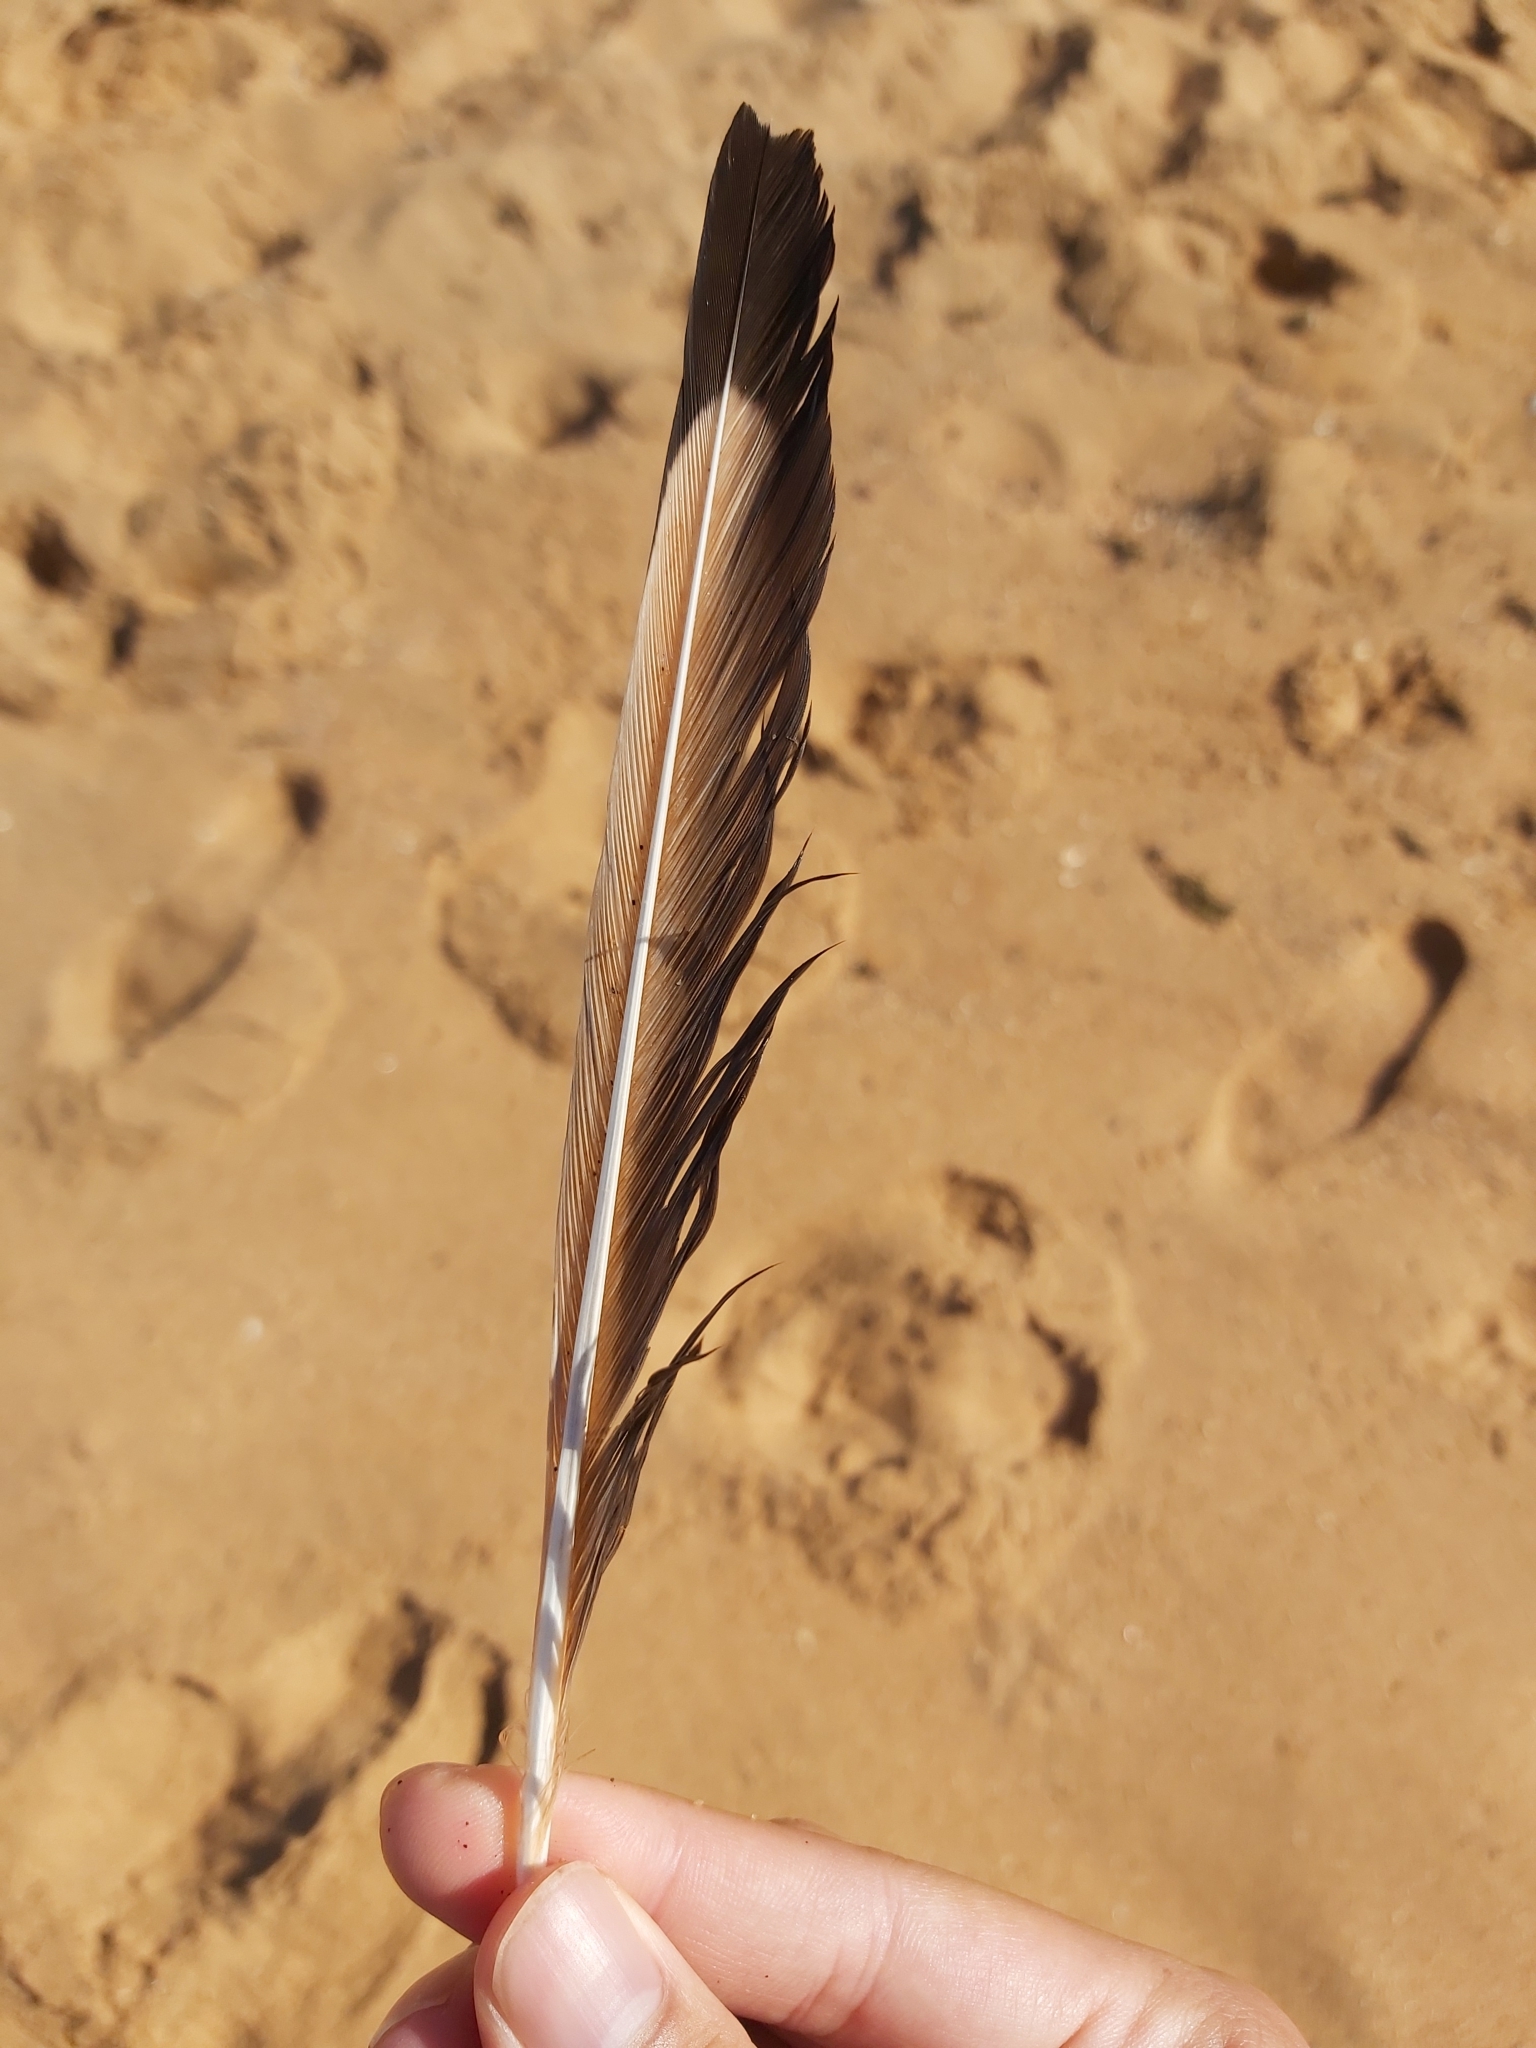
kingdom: Animalia
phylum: Chordata
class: Aves
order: Charadriiformes
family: Laridae
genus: Chroicocephalus
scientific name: Chroicocephalus novaehollandiae
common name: Silver gull
